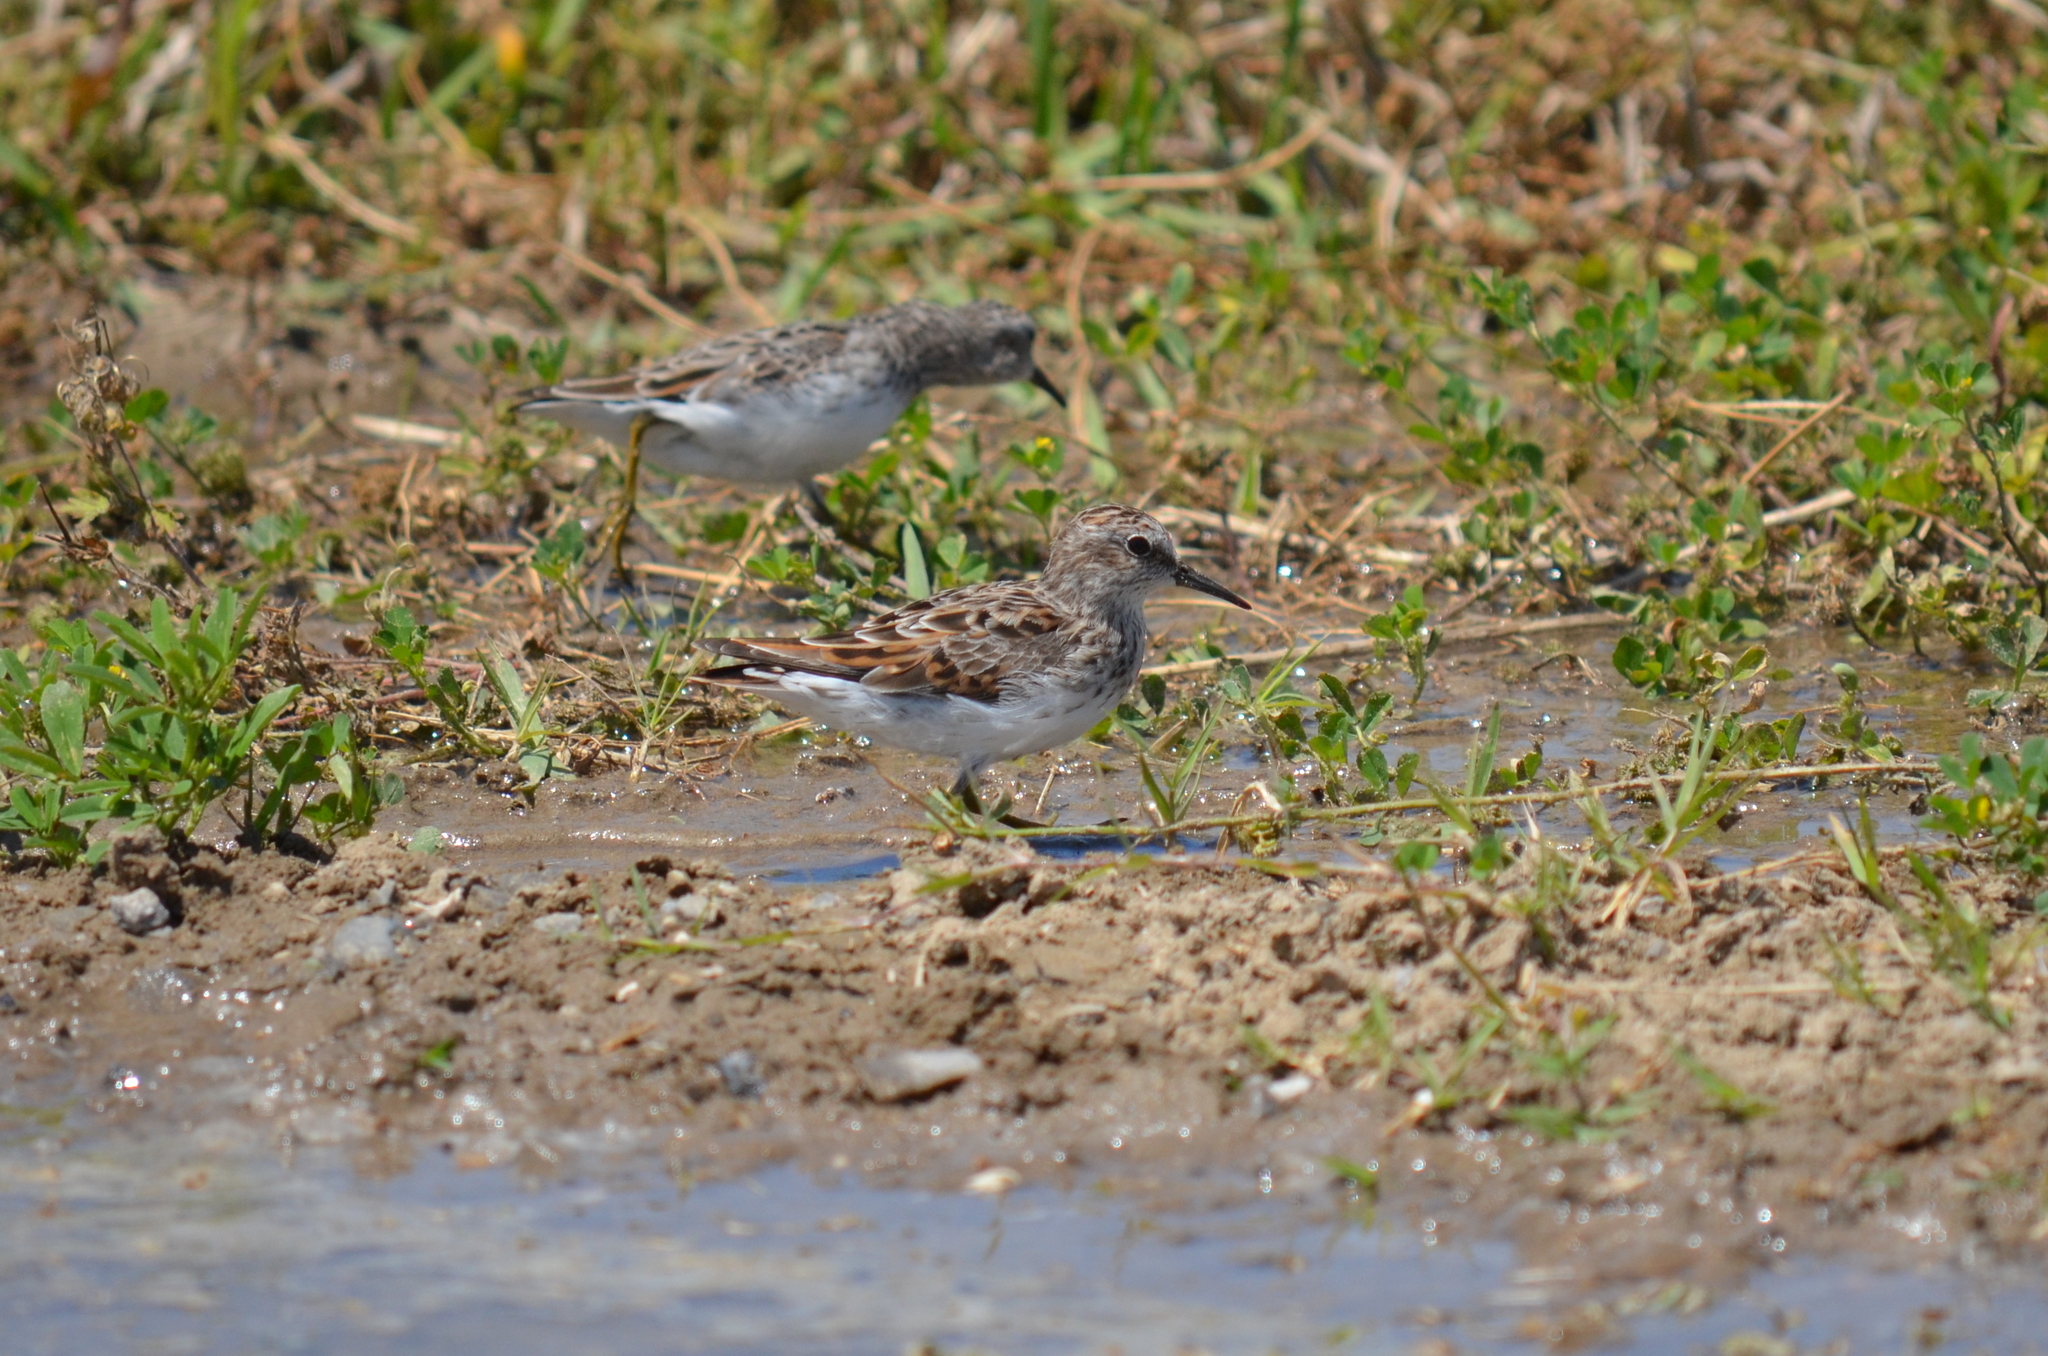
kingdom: Animalia
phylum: Chordata
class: Aves
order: Charadriiformes
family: Scolopacidae
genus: Calidris
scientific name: Calidris minutilla
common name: Least sandpiper
